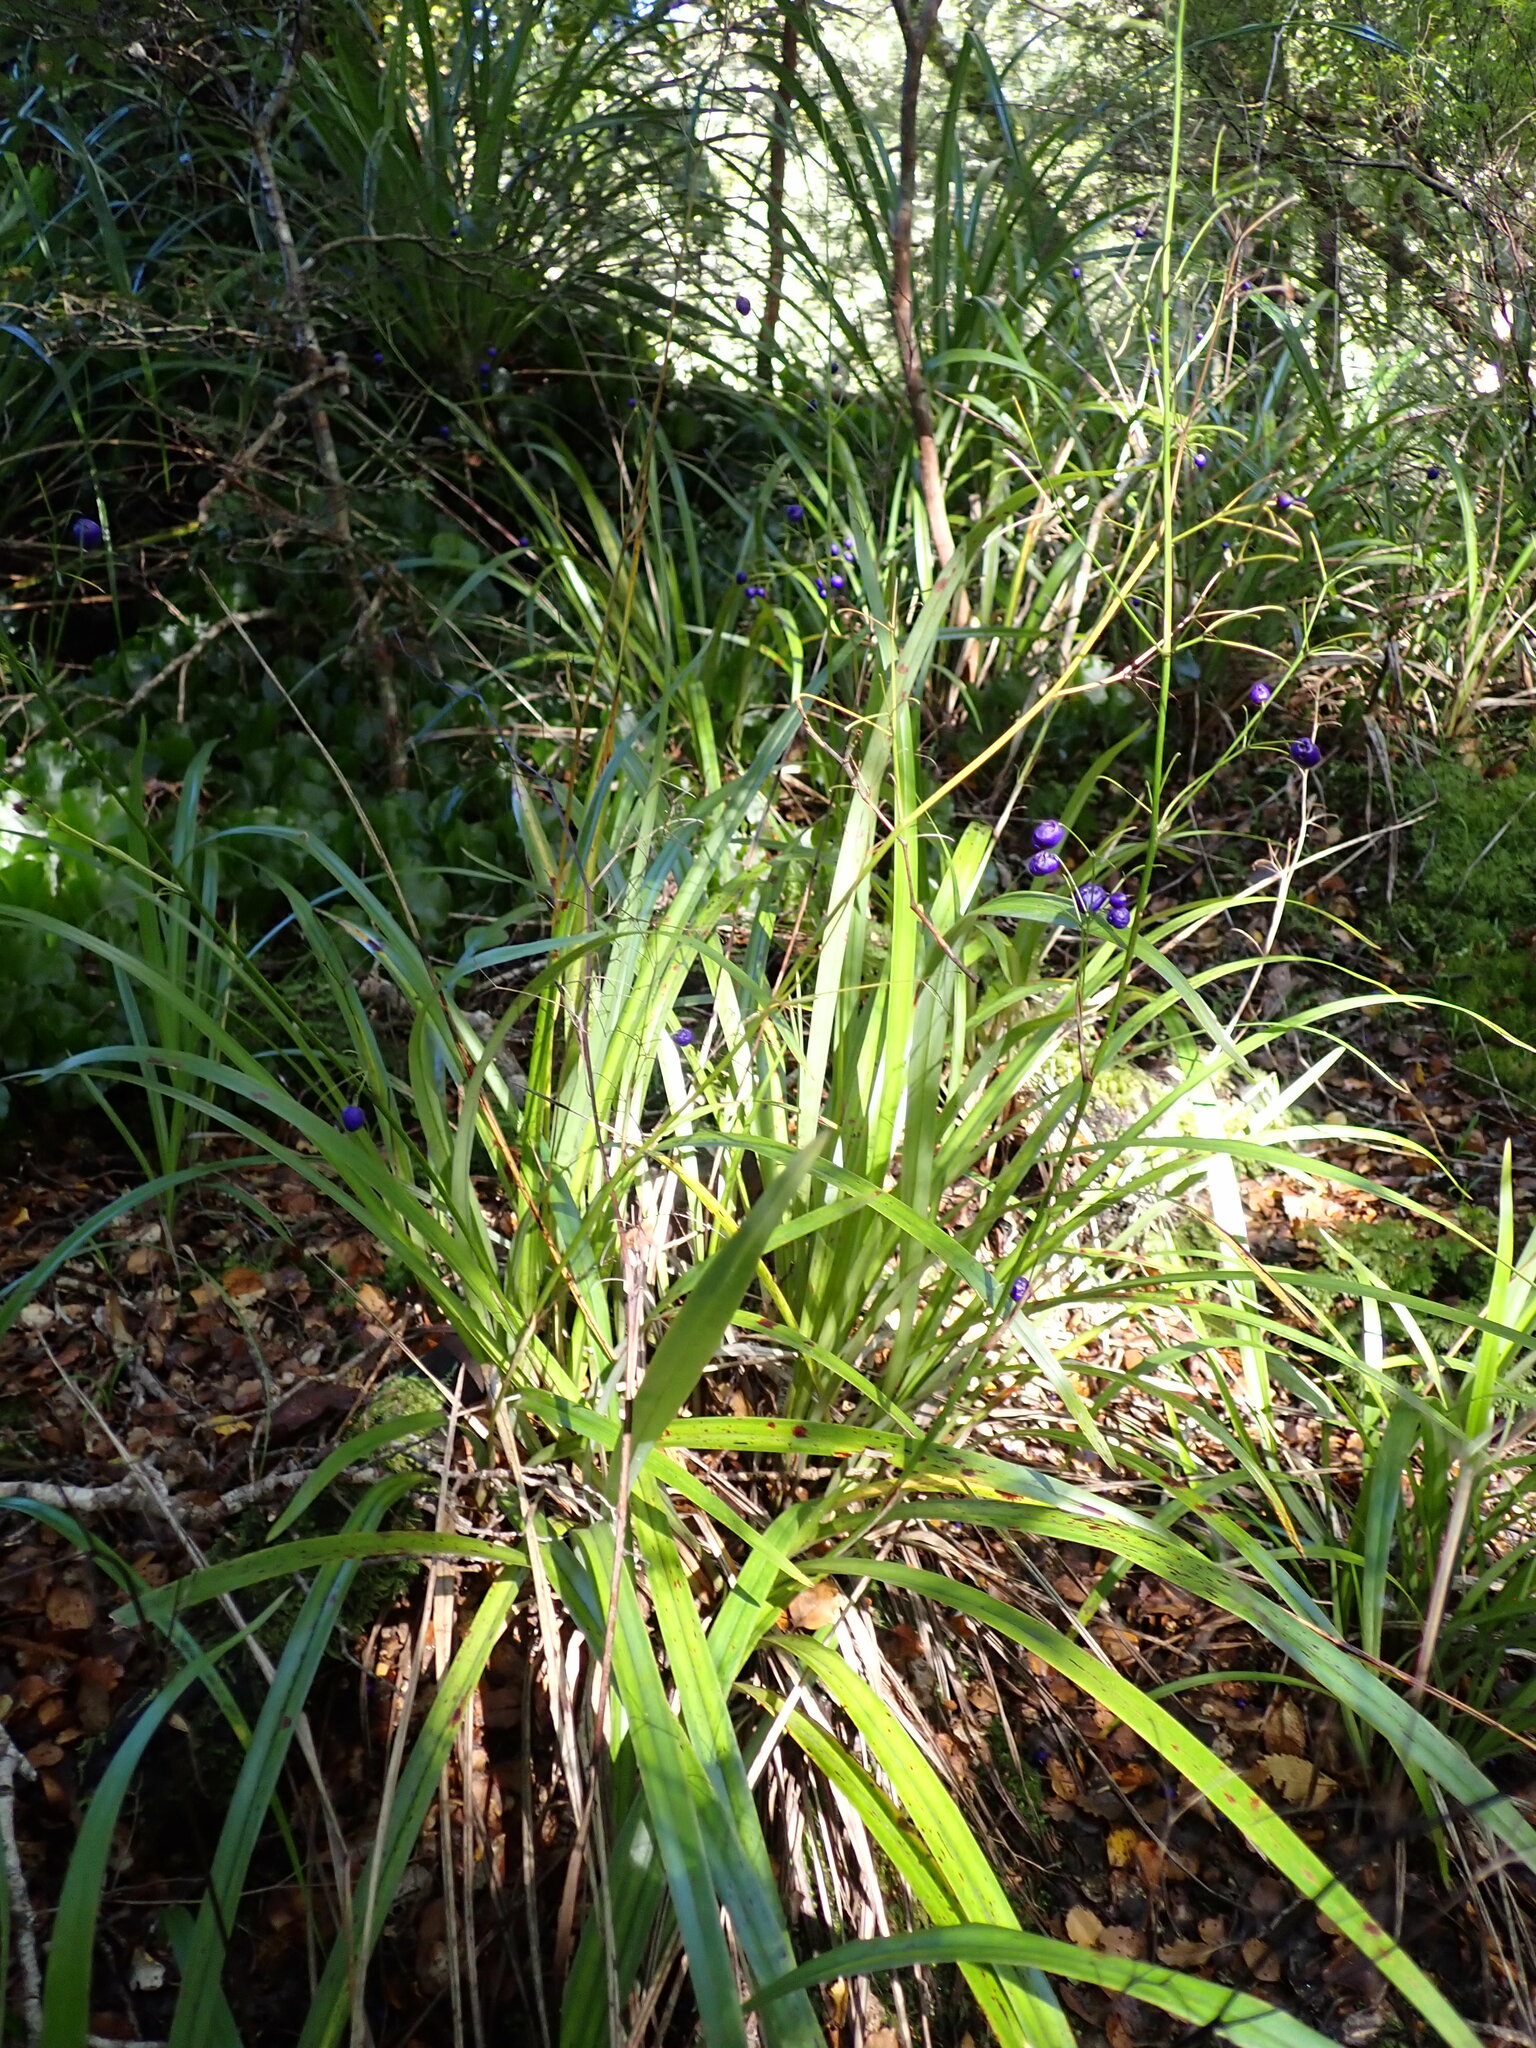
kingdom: Plantae
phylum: Tracheophyta
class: Liliopsida
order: Poales
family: Cyperaceae
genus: Gahnia
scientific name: Gahnia pauciflora
